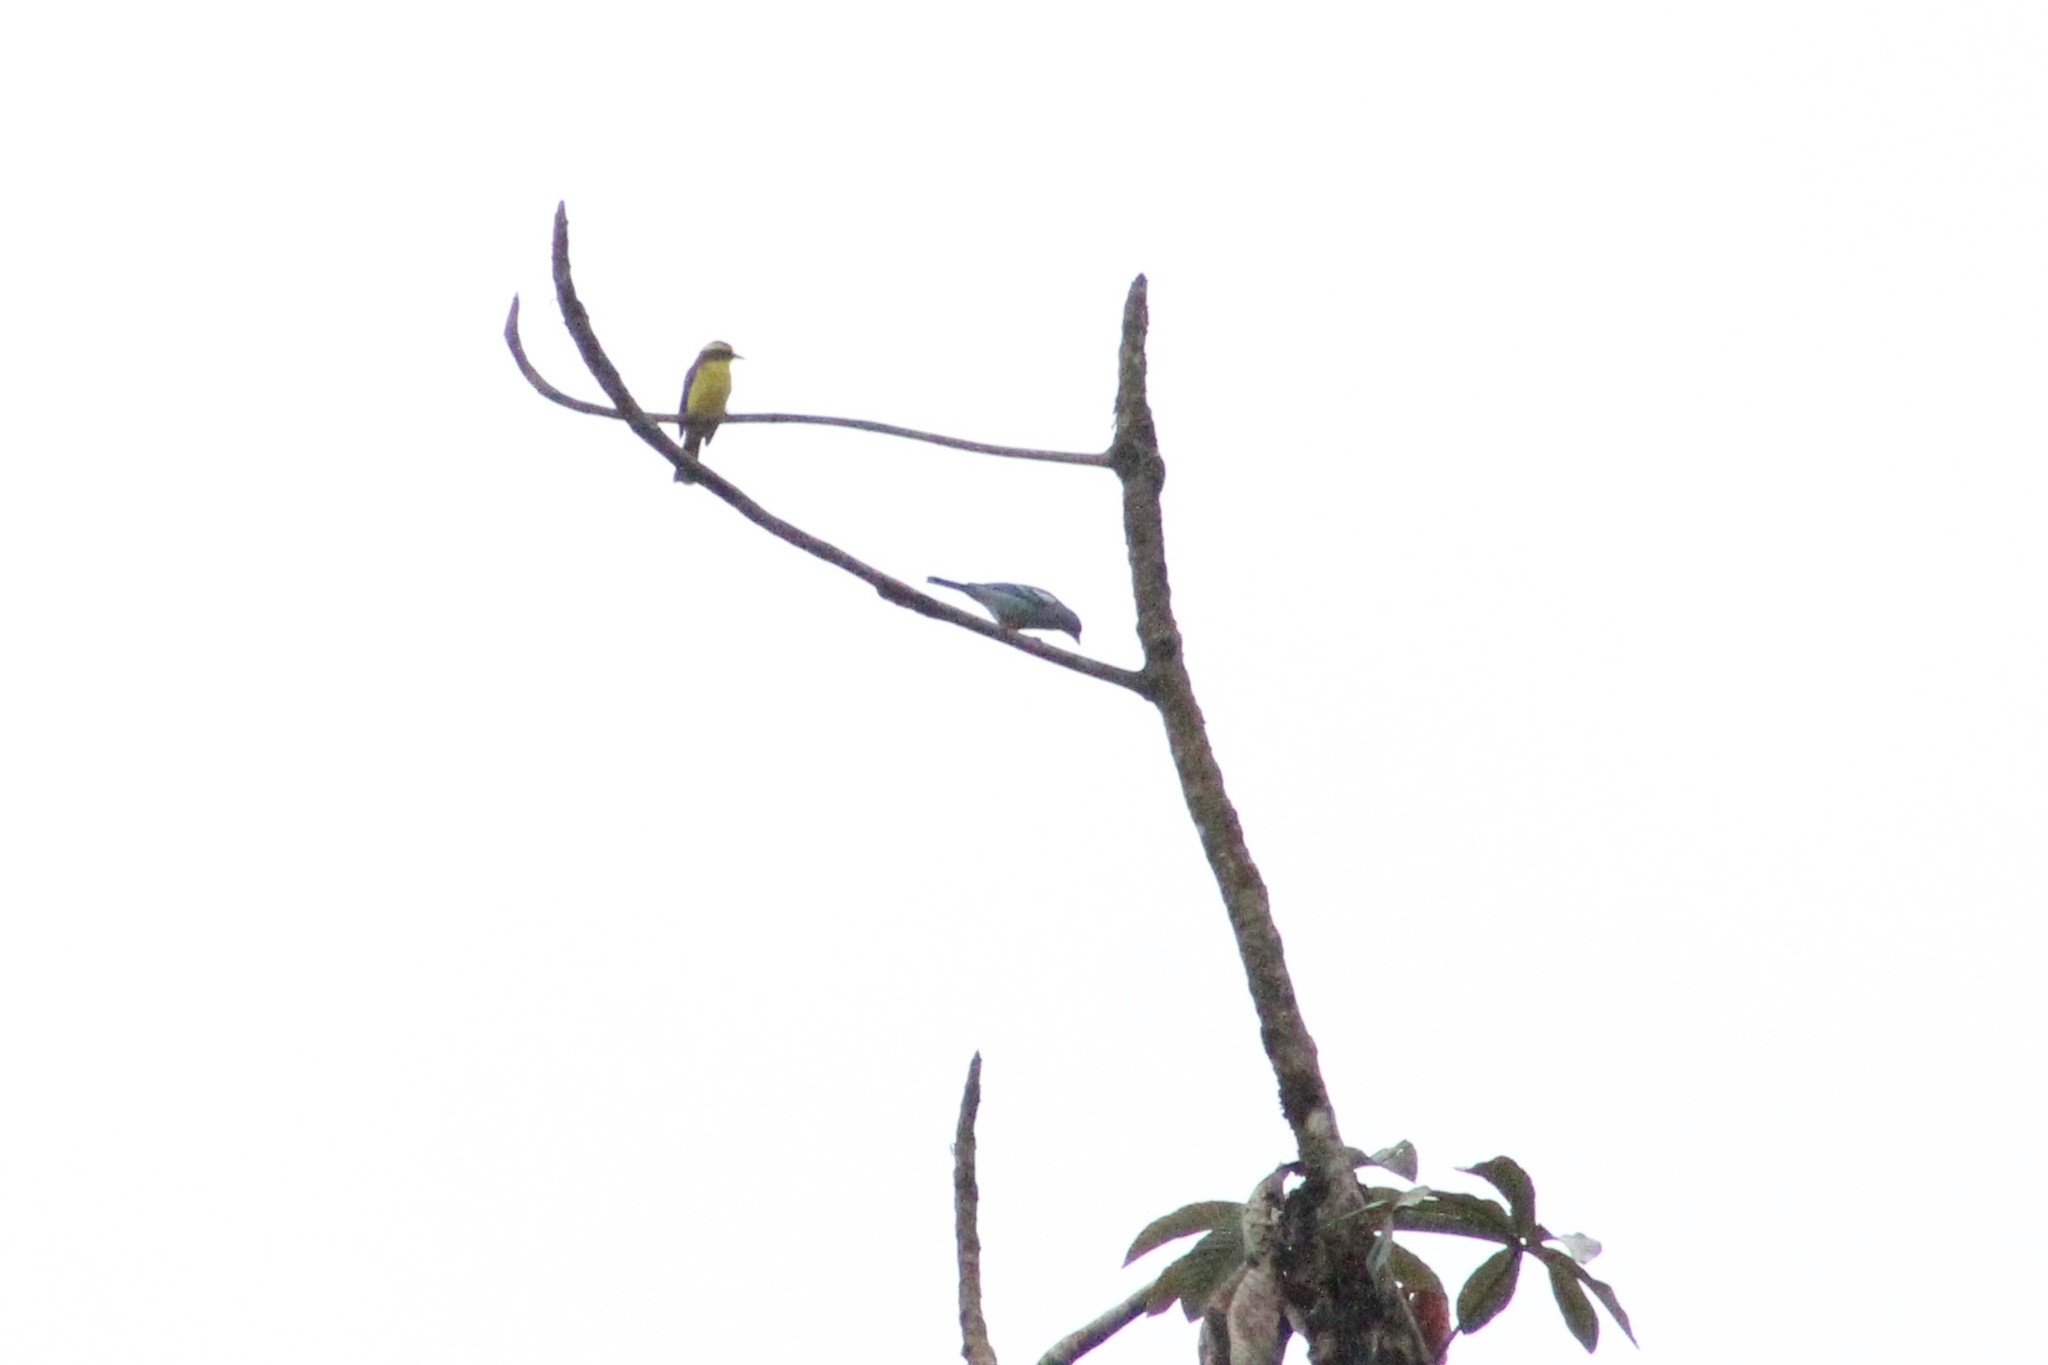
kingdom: Animalia
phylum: Chordata
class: Aves
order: Passeriformes
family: Thraupidae
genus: Thraupis
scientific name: Thraupis episcopus
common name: Blue-grey tanager
